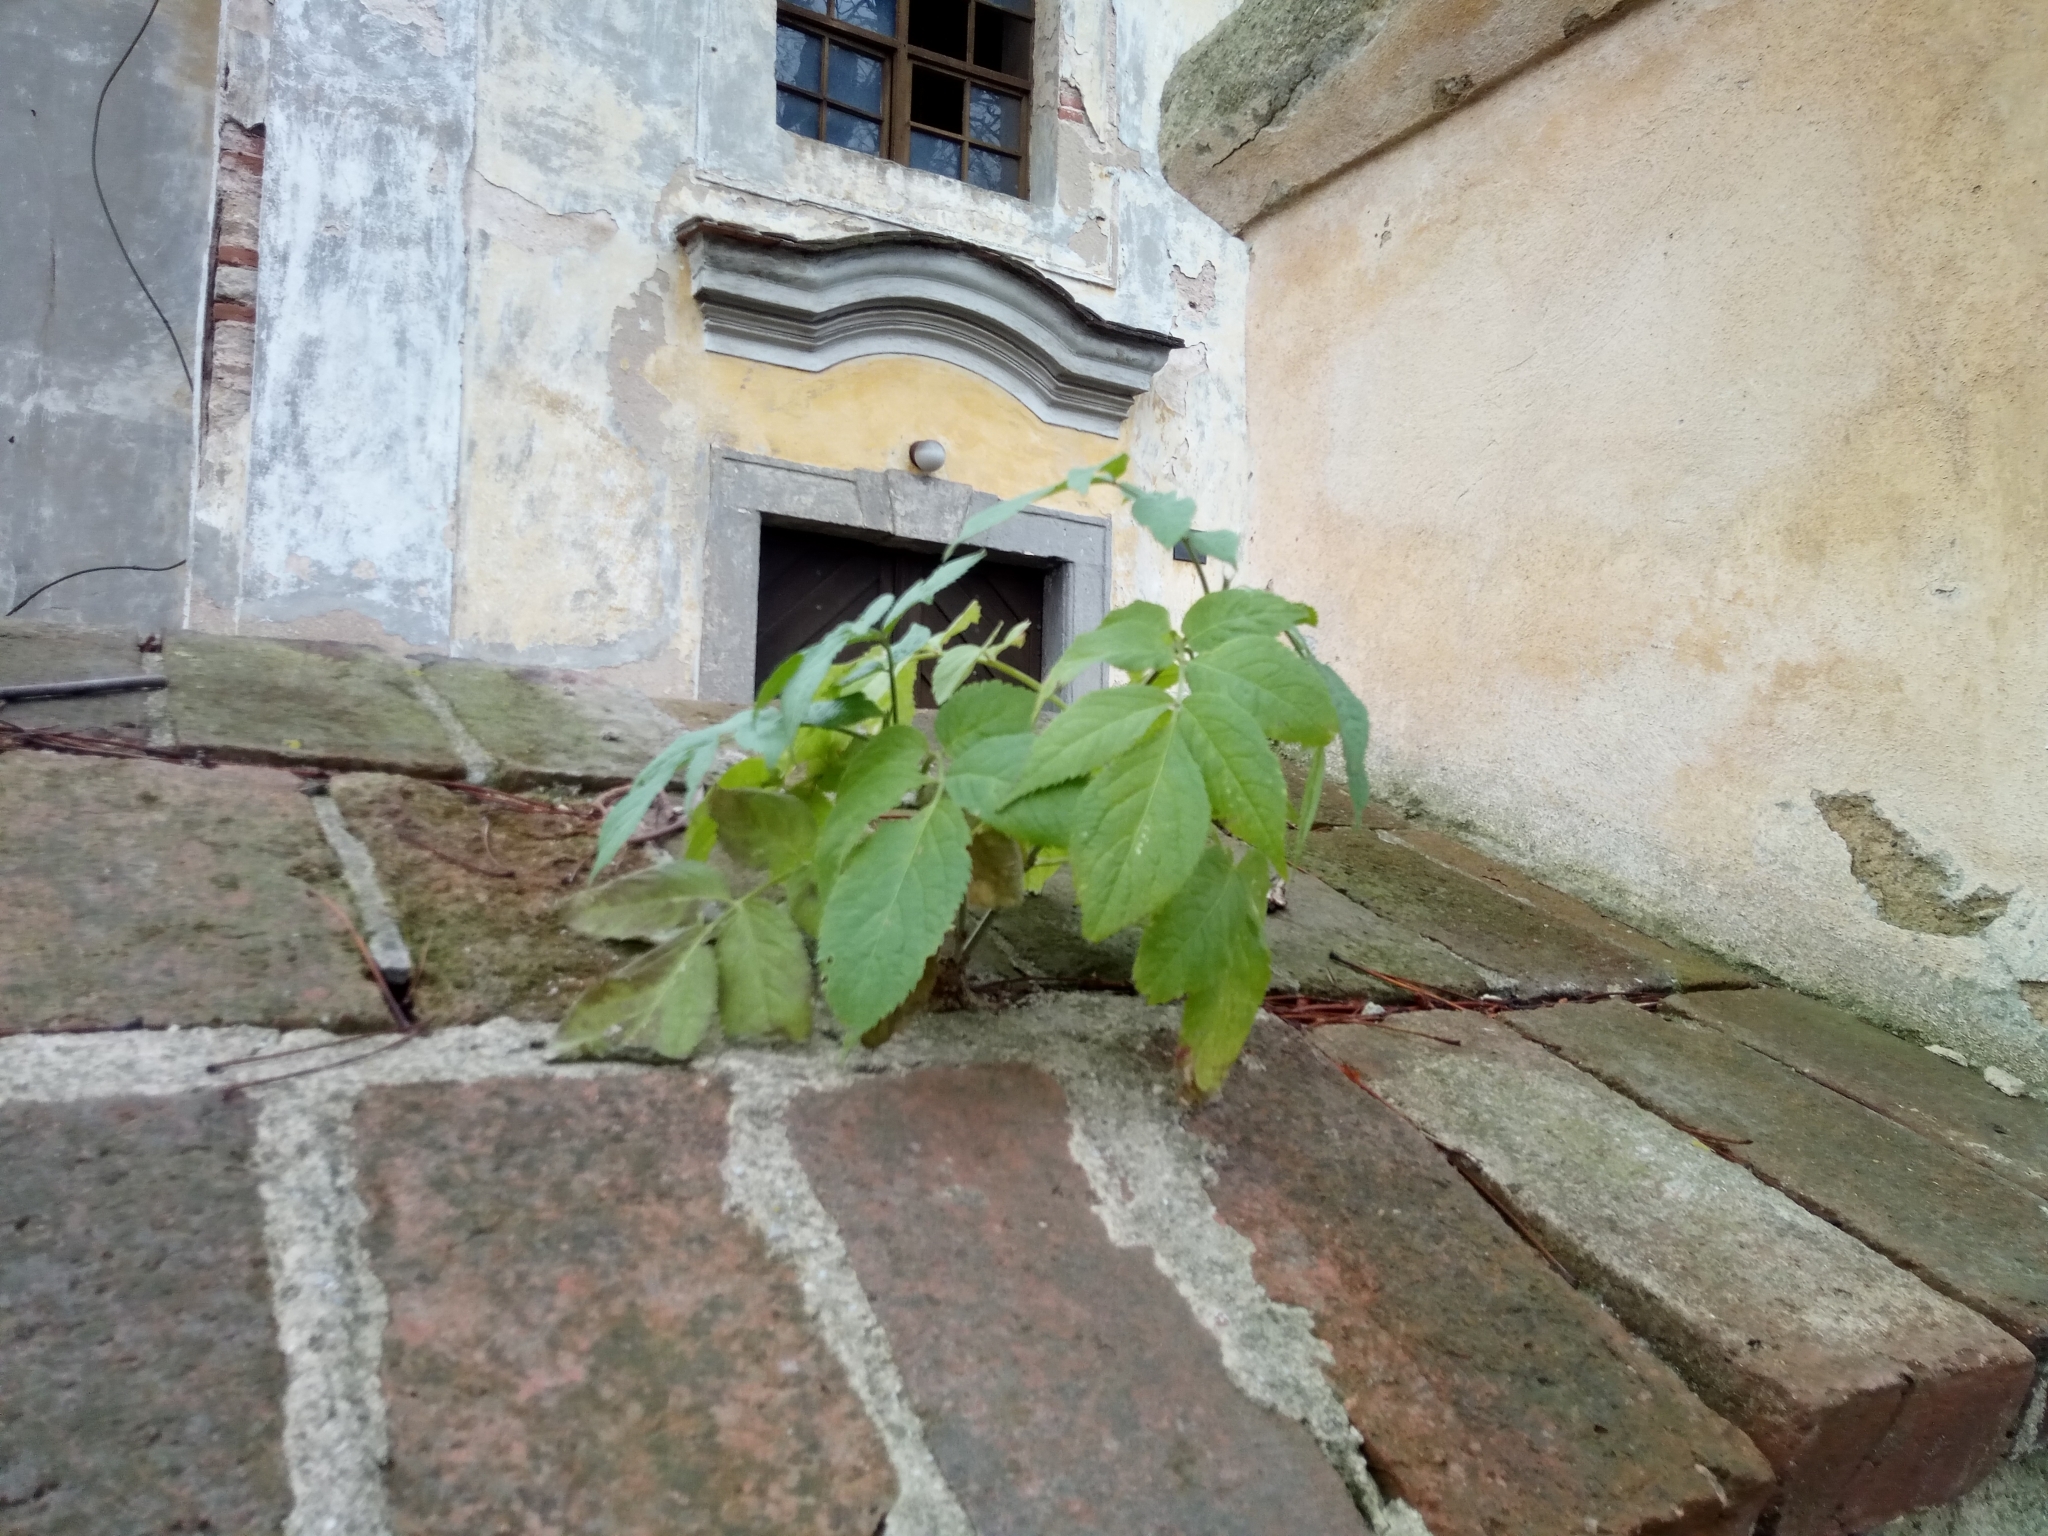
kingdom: Plantae
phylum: Tracheophyta
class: Magnoliopsida
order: Dipsacales
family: Viburnaceae
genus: Sambucus
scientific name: Sambucus nigra
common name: Elder
